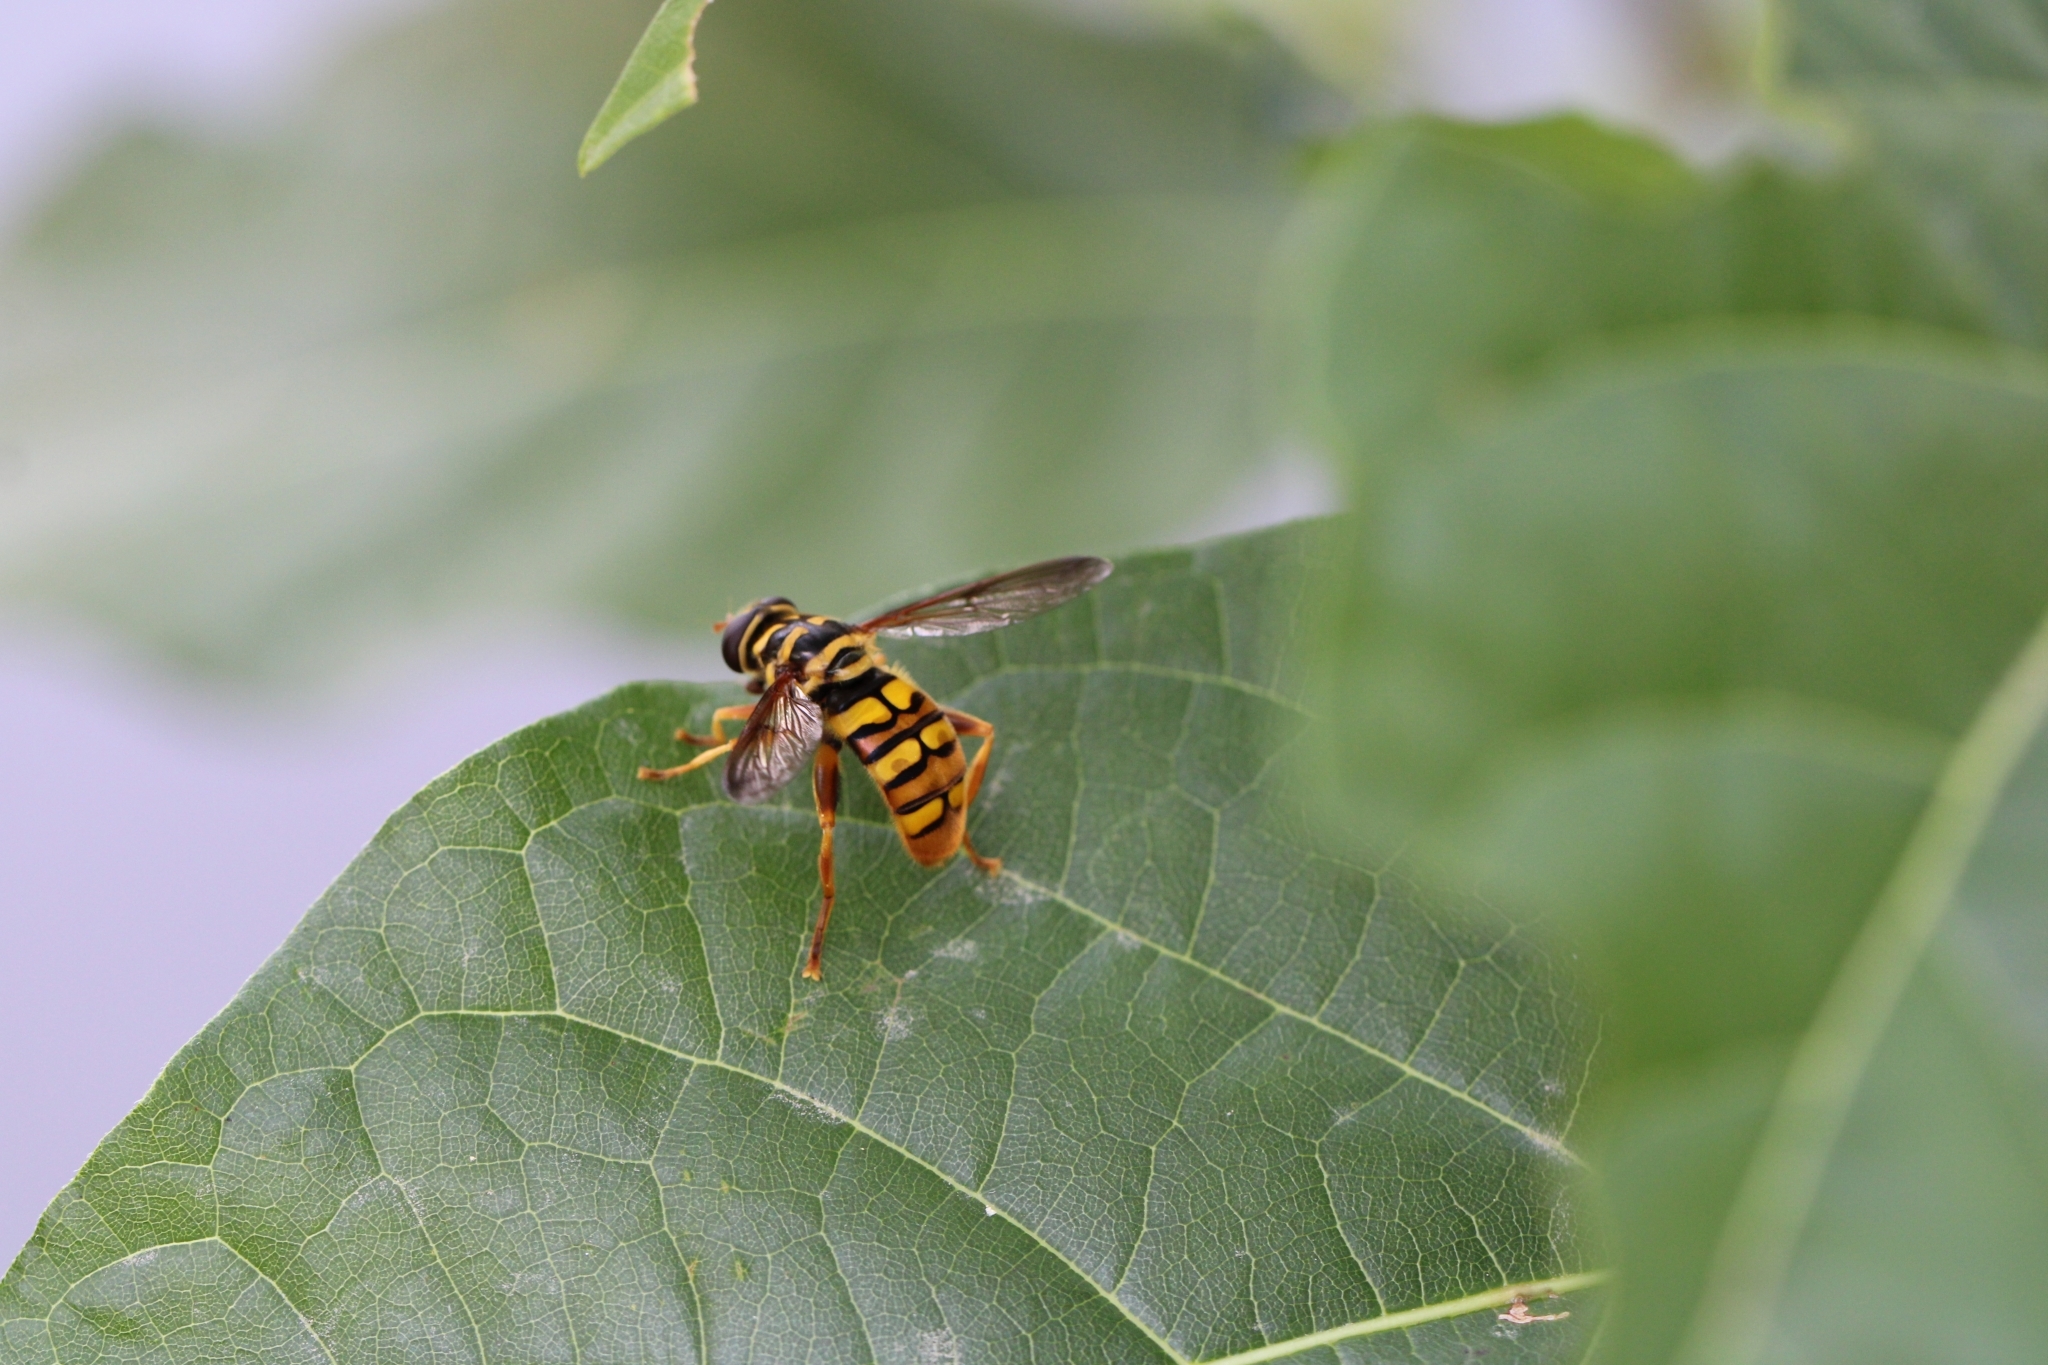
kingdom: Animalia
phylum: Arthropoda
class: Insecta
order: Diptera
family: Syrphidae
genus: Milesia
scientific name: Milesia virginiensis
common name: Virginia giant
